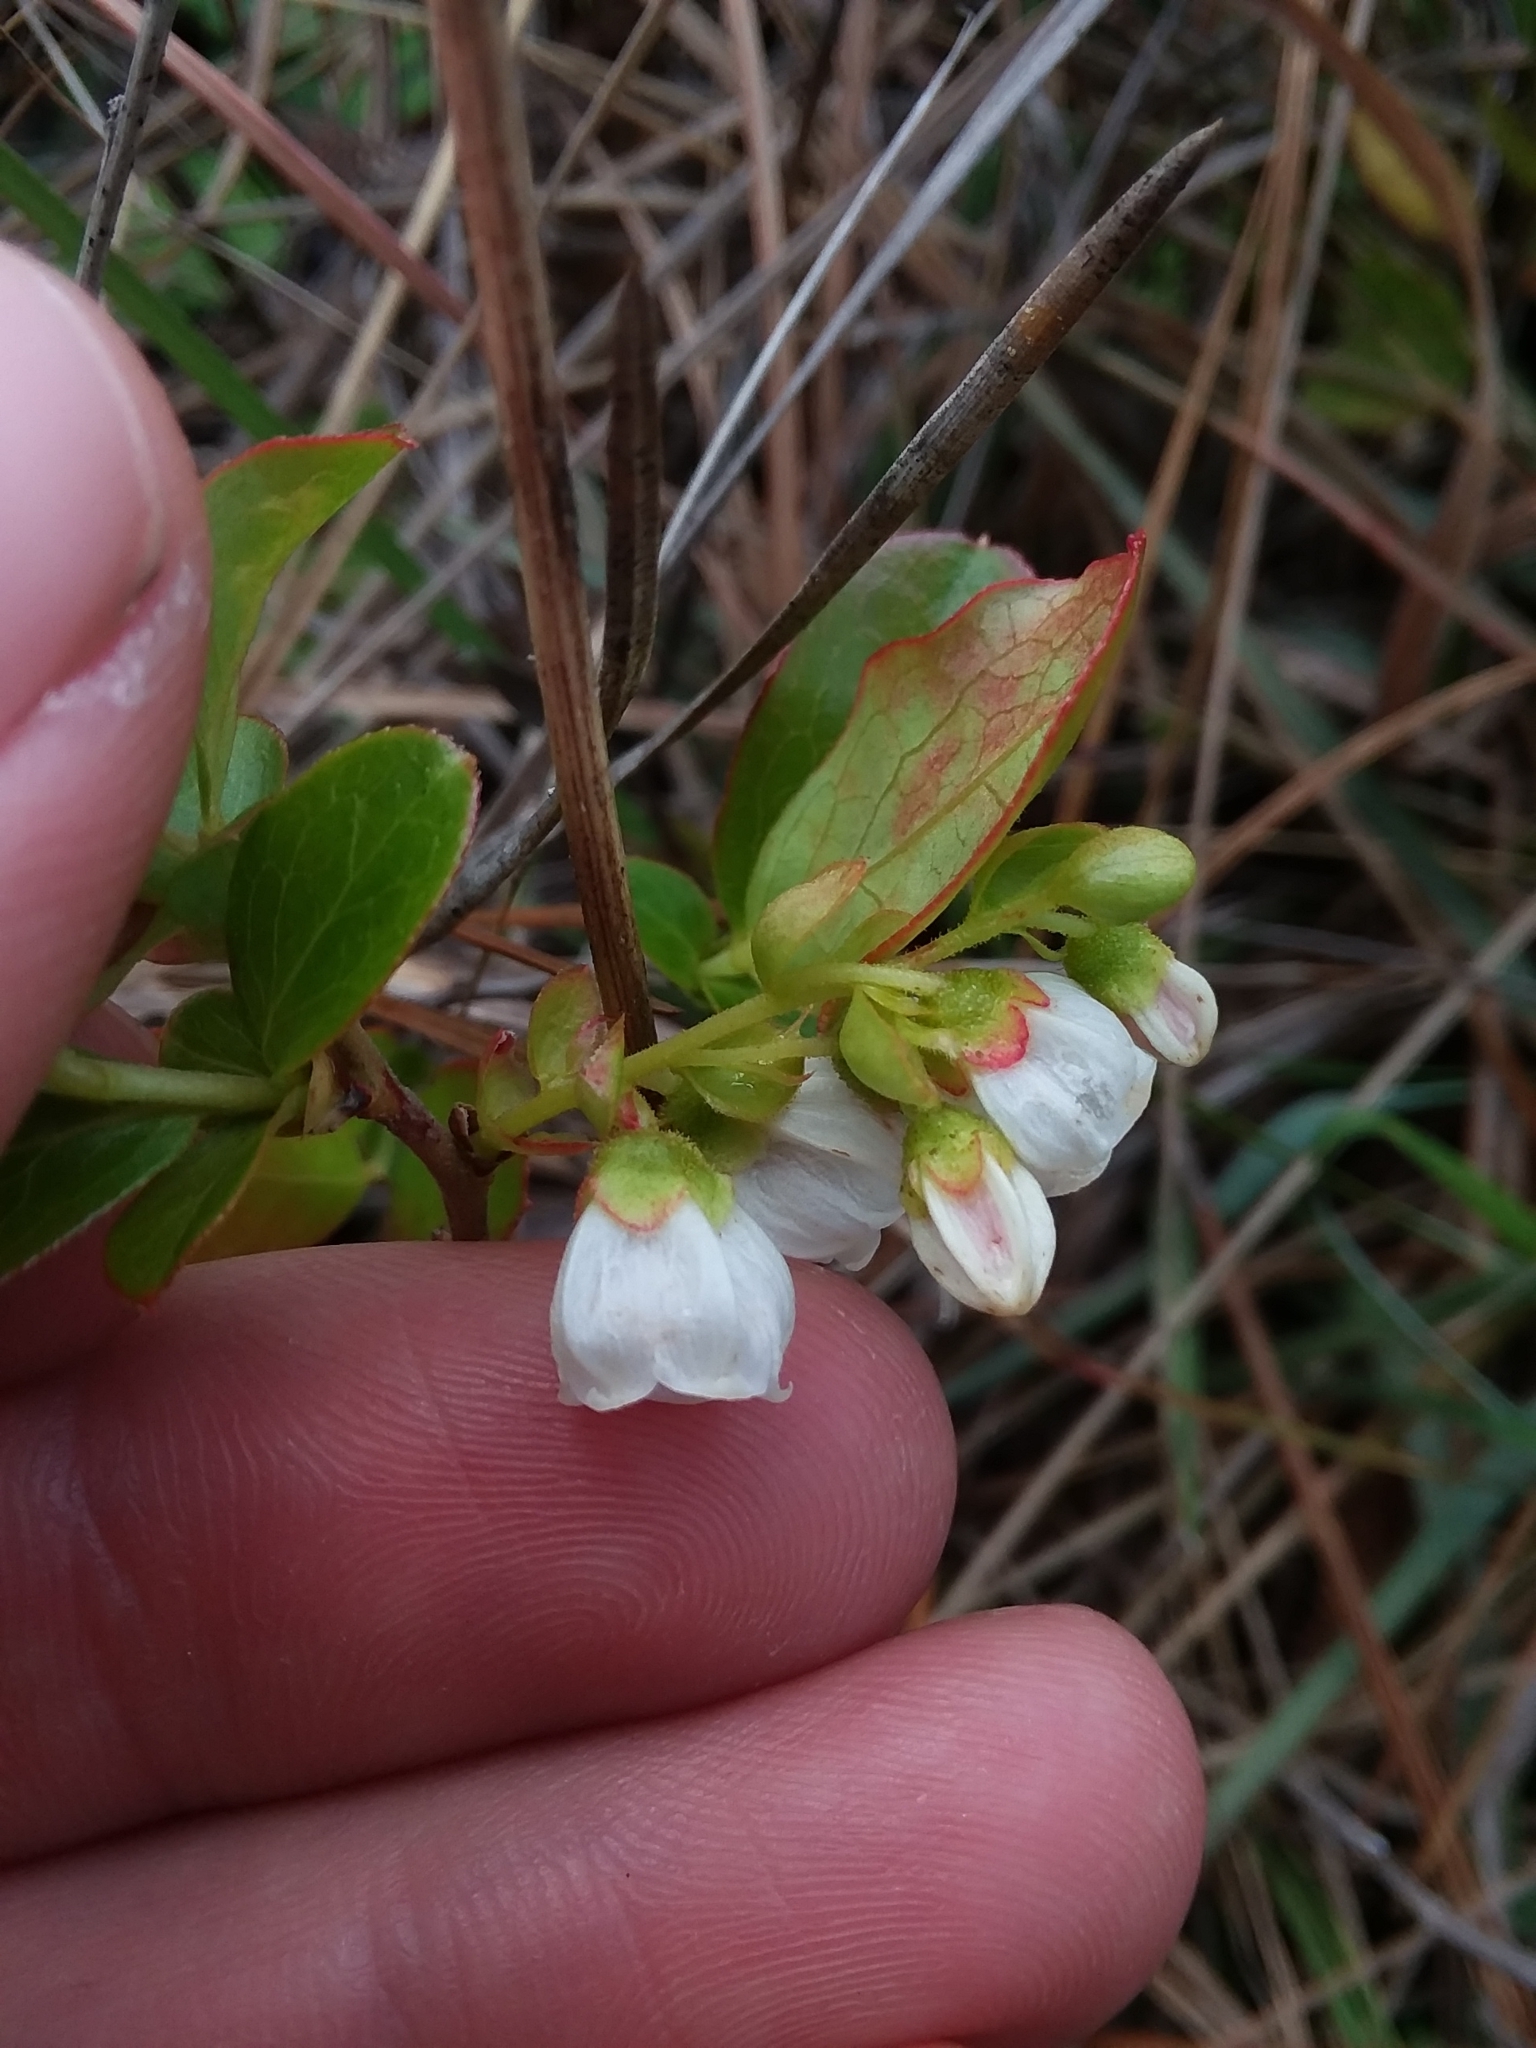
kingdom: Plantae
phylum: Tracheophyta
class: Magnoliopsida
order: Ericales
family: Ericaceae
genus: Gaylussacia
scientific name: Gaylussacia dumosa
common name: Dwarf huckleberry
